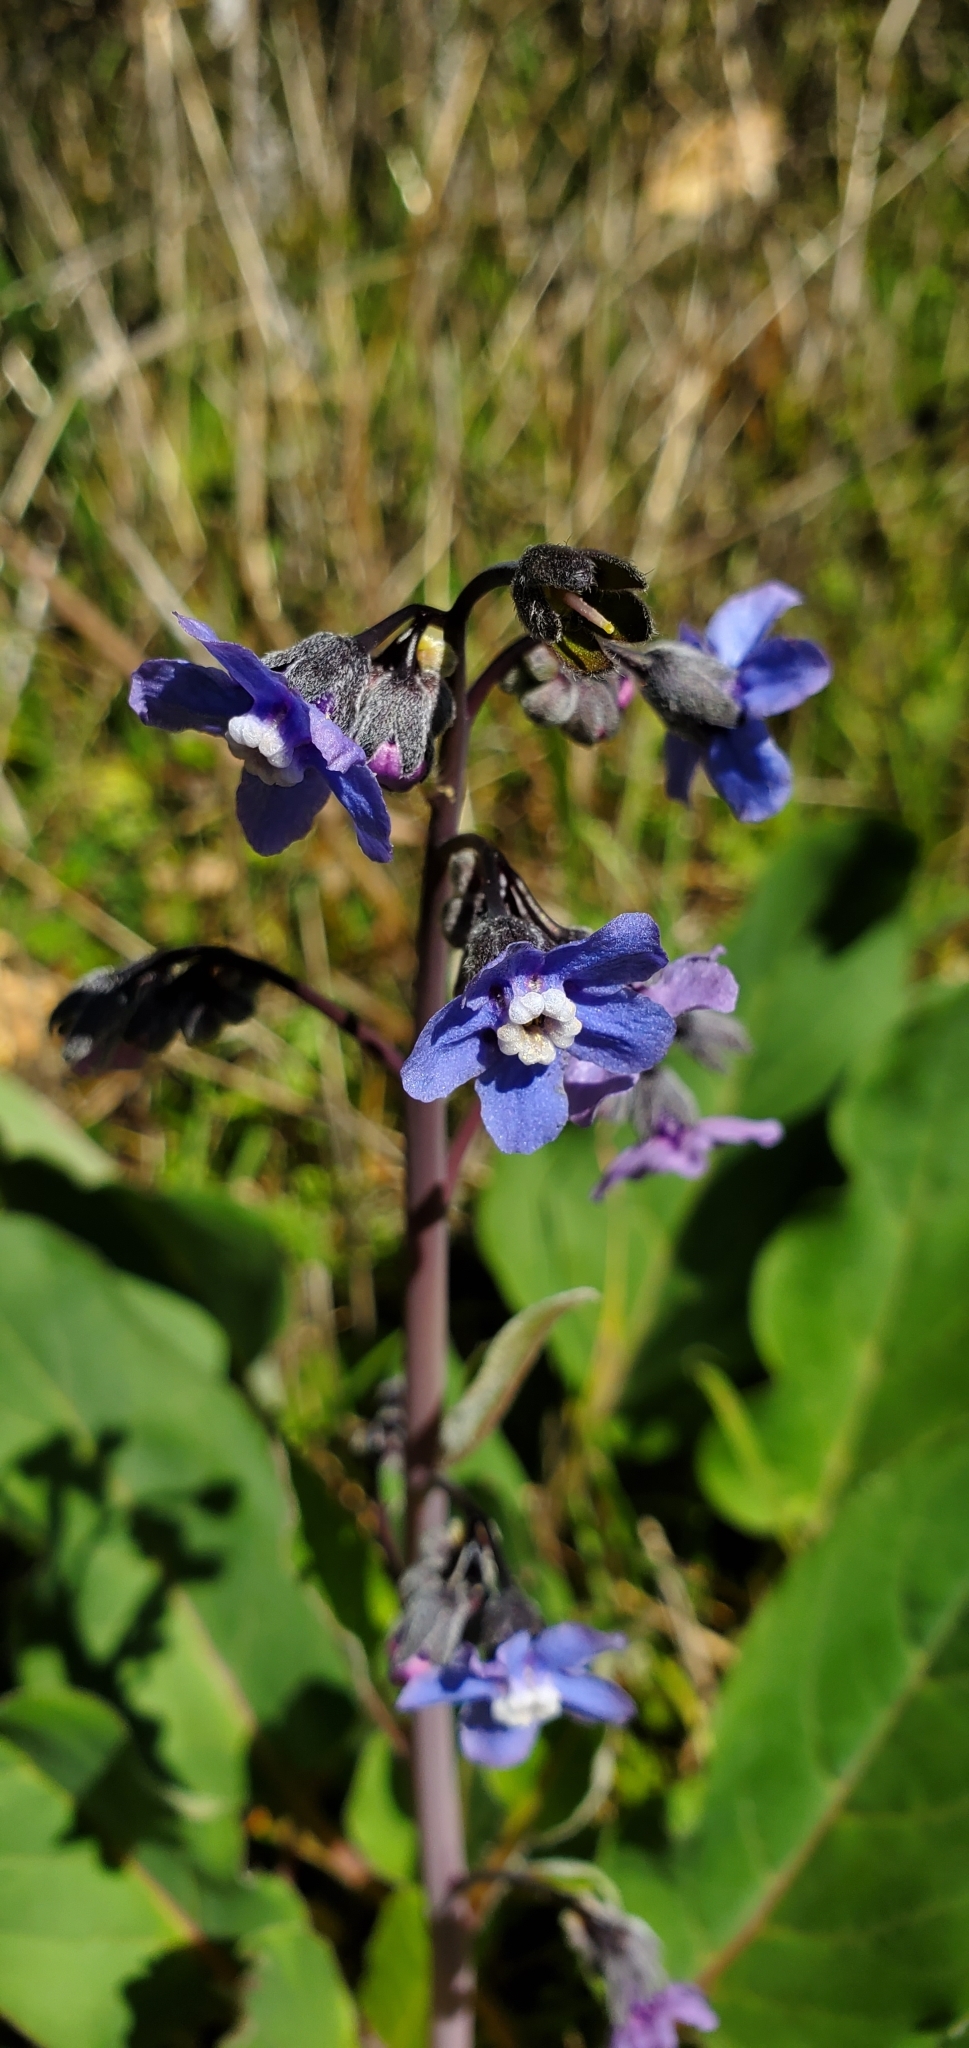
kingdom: Plantae
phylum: Tracheophyta
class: Magnoliopsida
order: Boraginales
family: Boraginaceae
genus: Adelinia
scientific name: Adelinia grande
